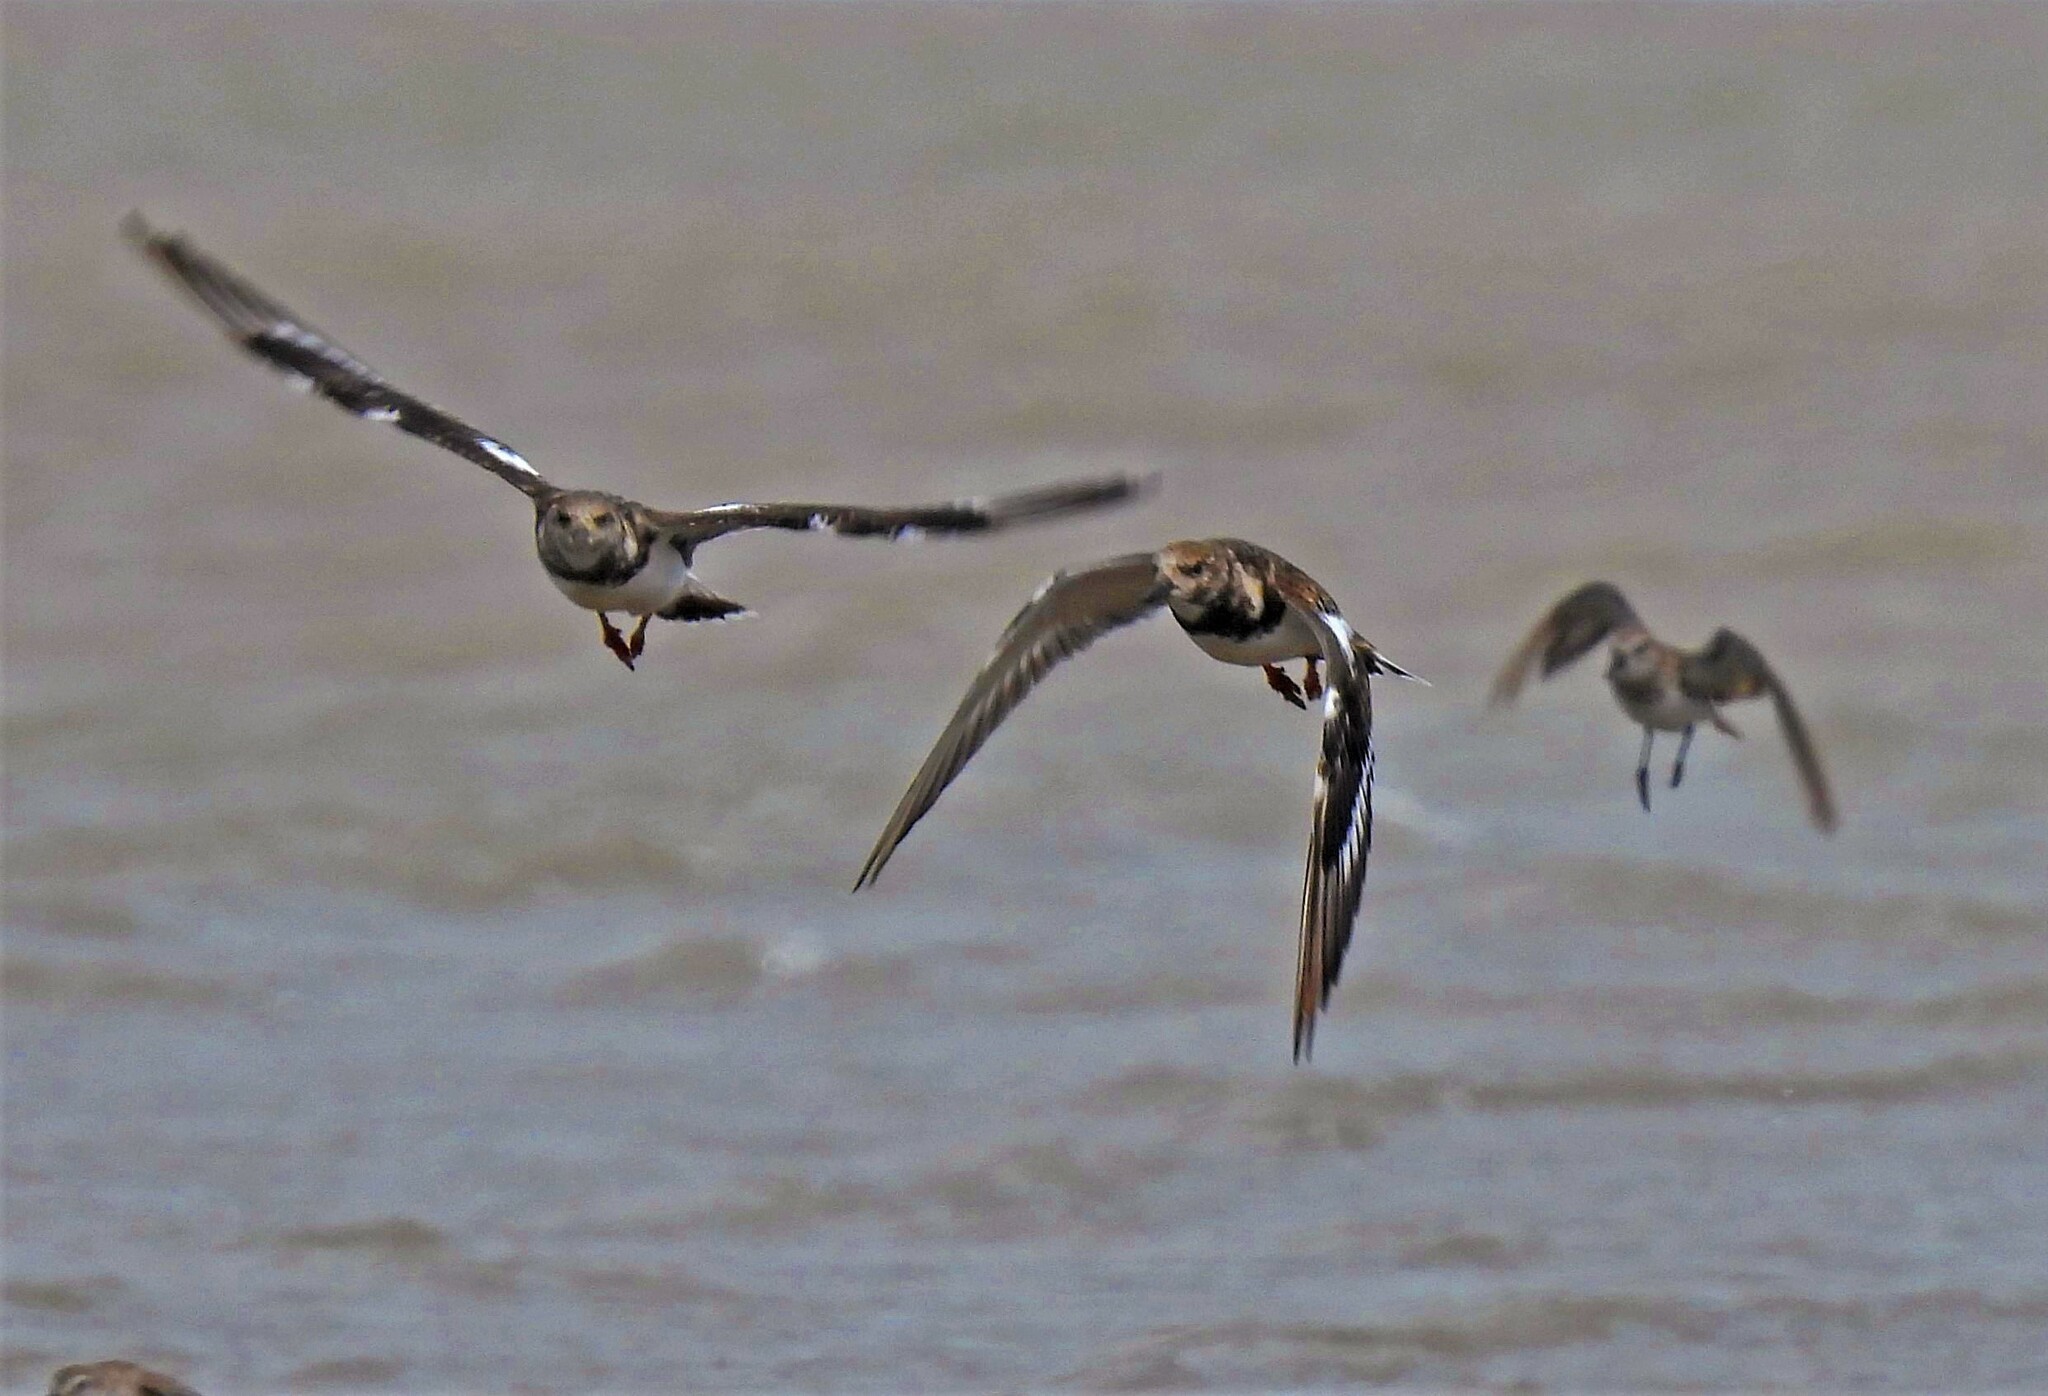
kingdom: Animalia
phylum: Chordata
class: Aves
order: Charadriiformes
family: Scolopacidae
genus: Arenaria
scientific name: Arenaria interpres
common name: Ruddy turnstone
